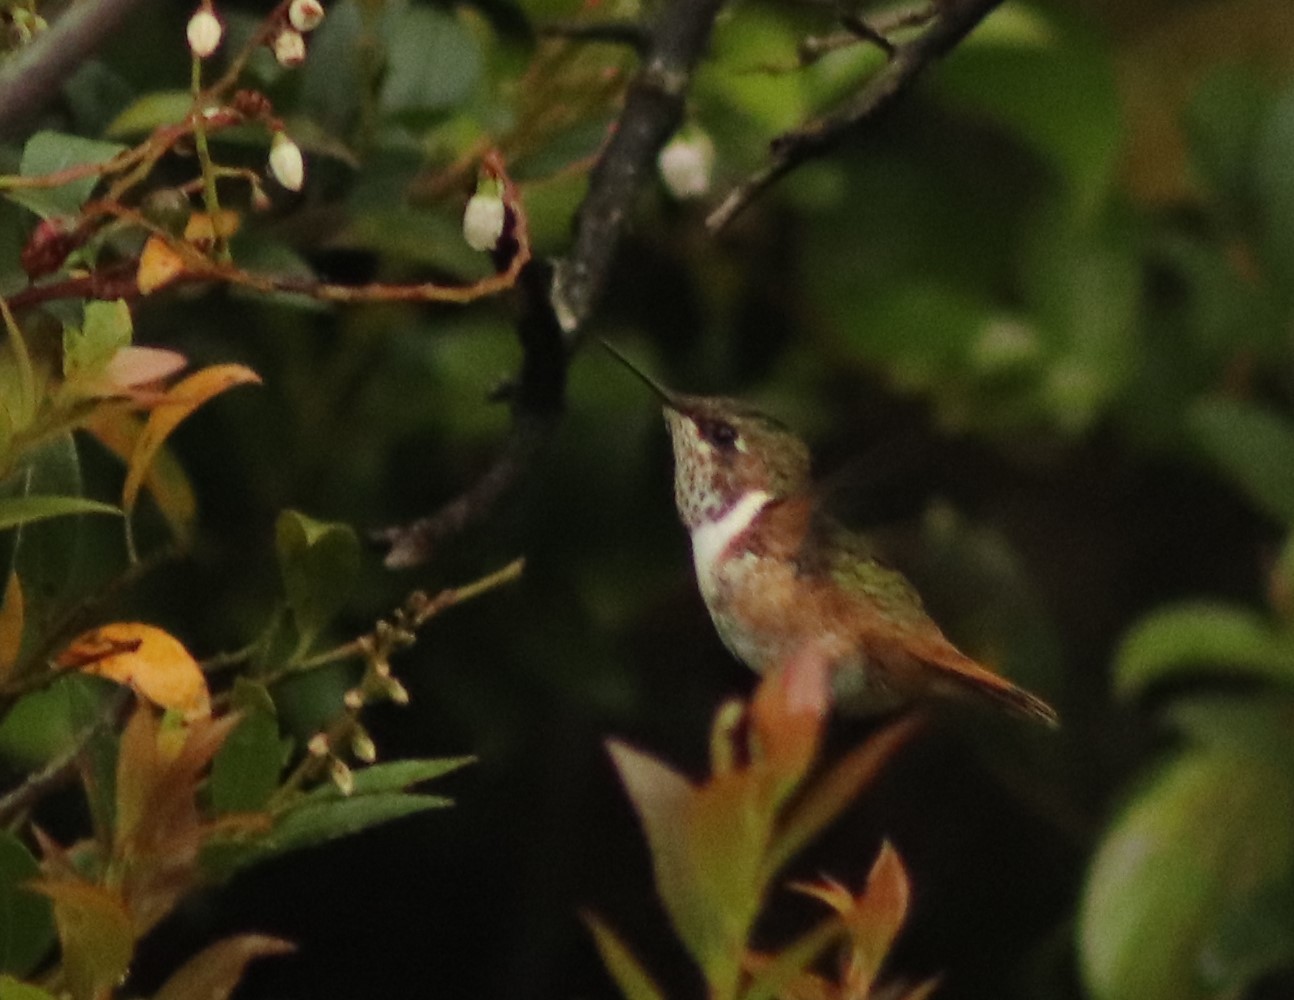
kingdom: Animalia
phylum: Chordata
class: Aves
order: Apodiformes
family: Trochilidae
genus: Selasphorus
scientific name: Selasphorus scintilla
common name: Scintillant hummingbird
